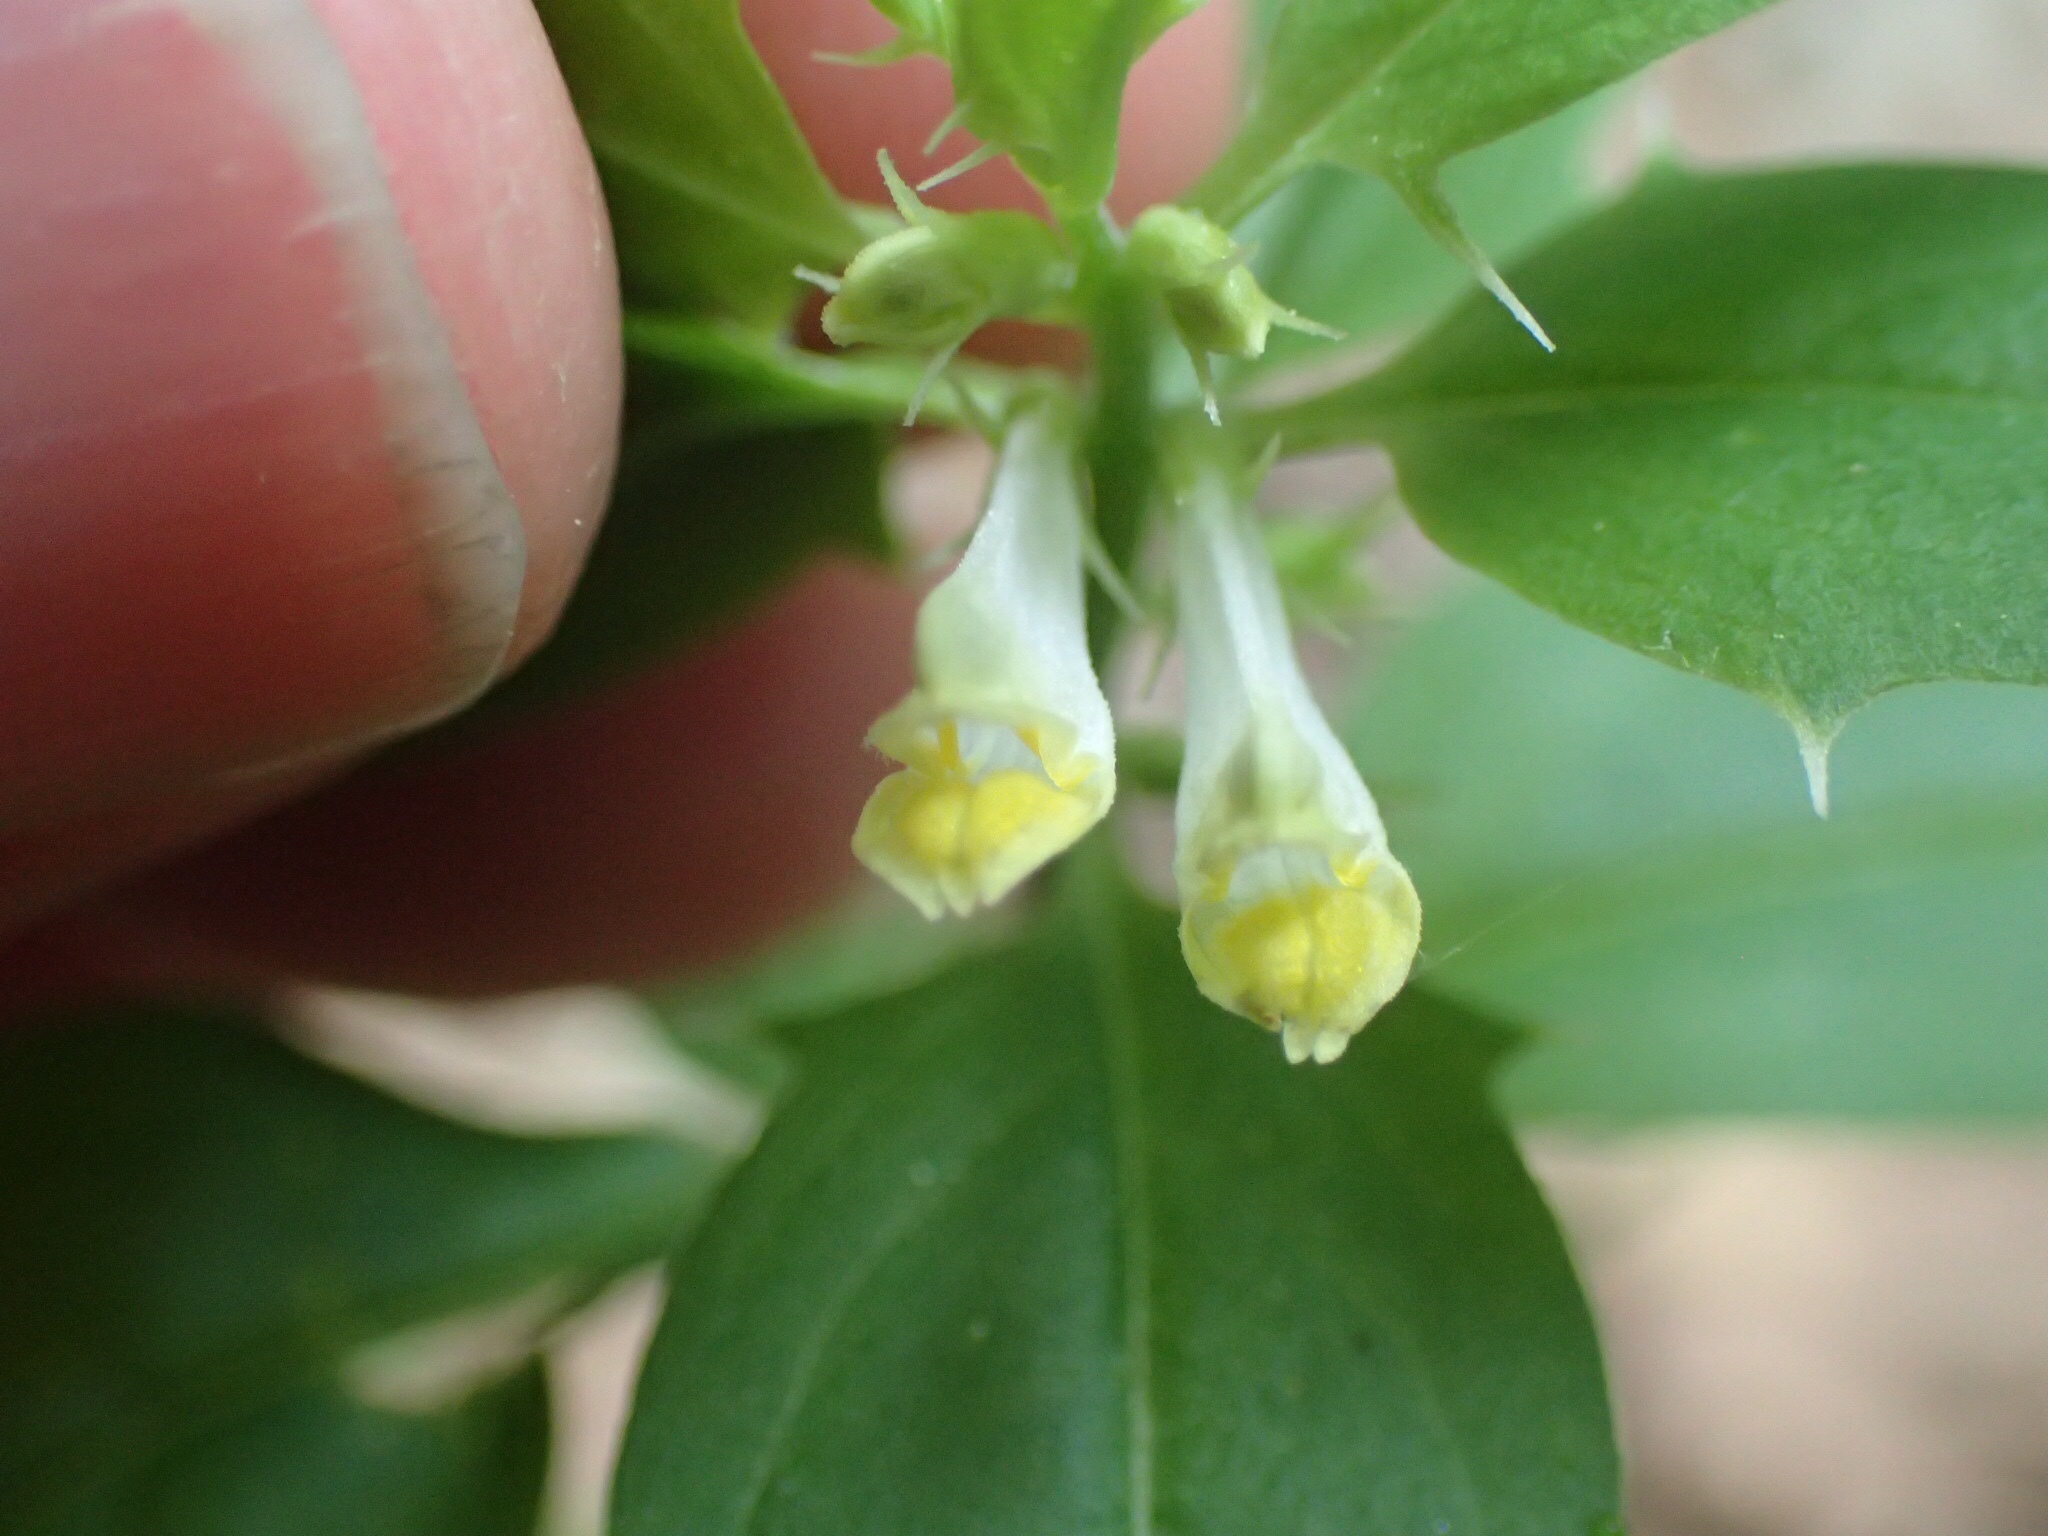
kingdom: Plantae
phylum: Tracheophyta
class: Magnoliopsida
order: Lamiales
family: Orobanchaceae
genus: Melampyrum
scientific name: Melampyrum lineare
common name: American cow-wheat
